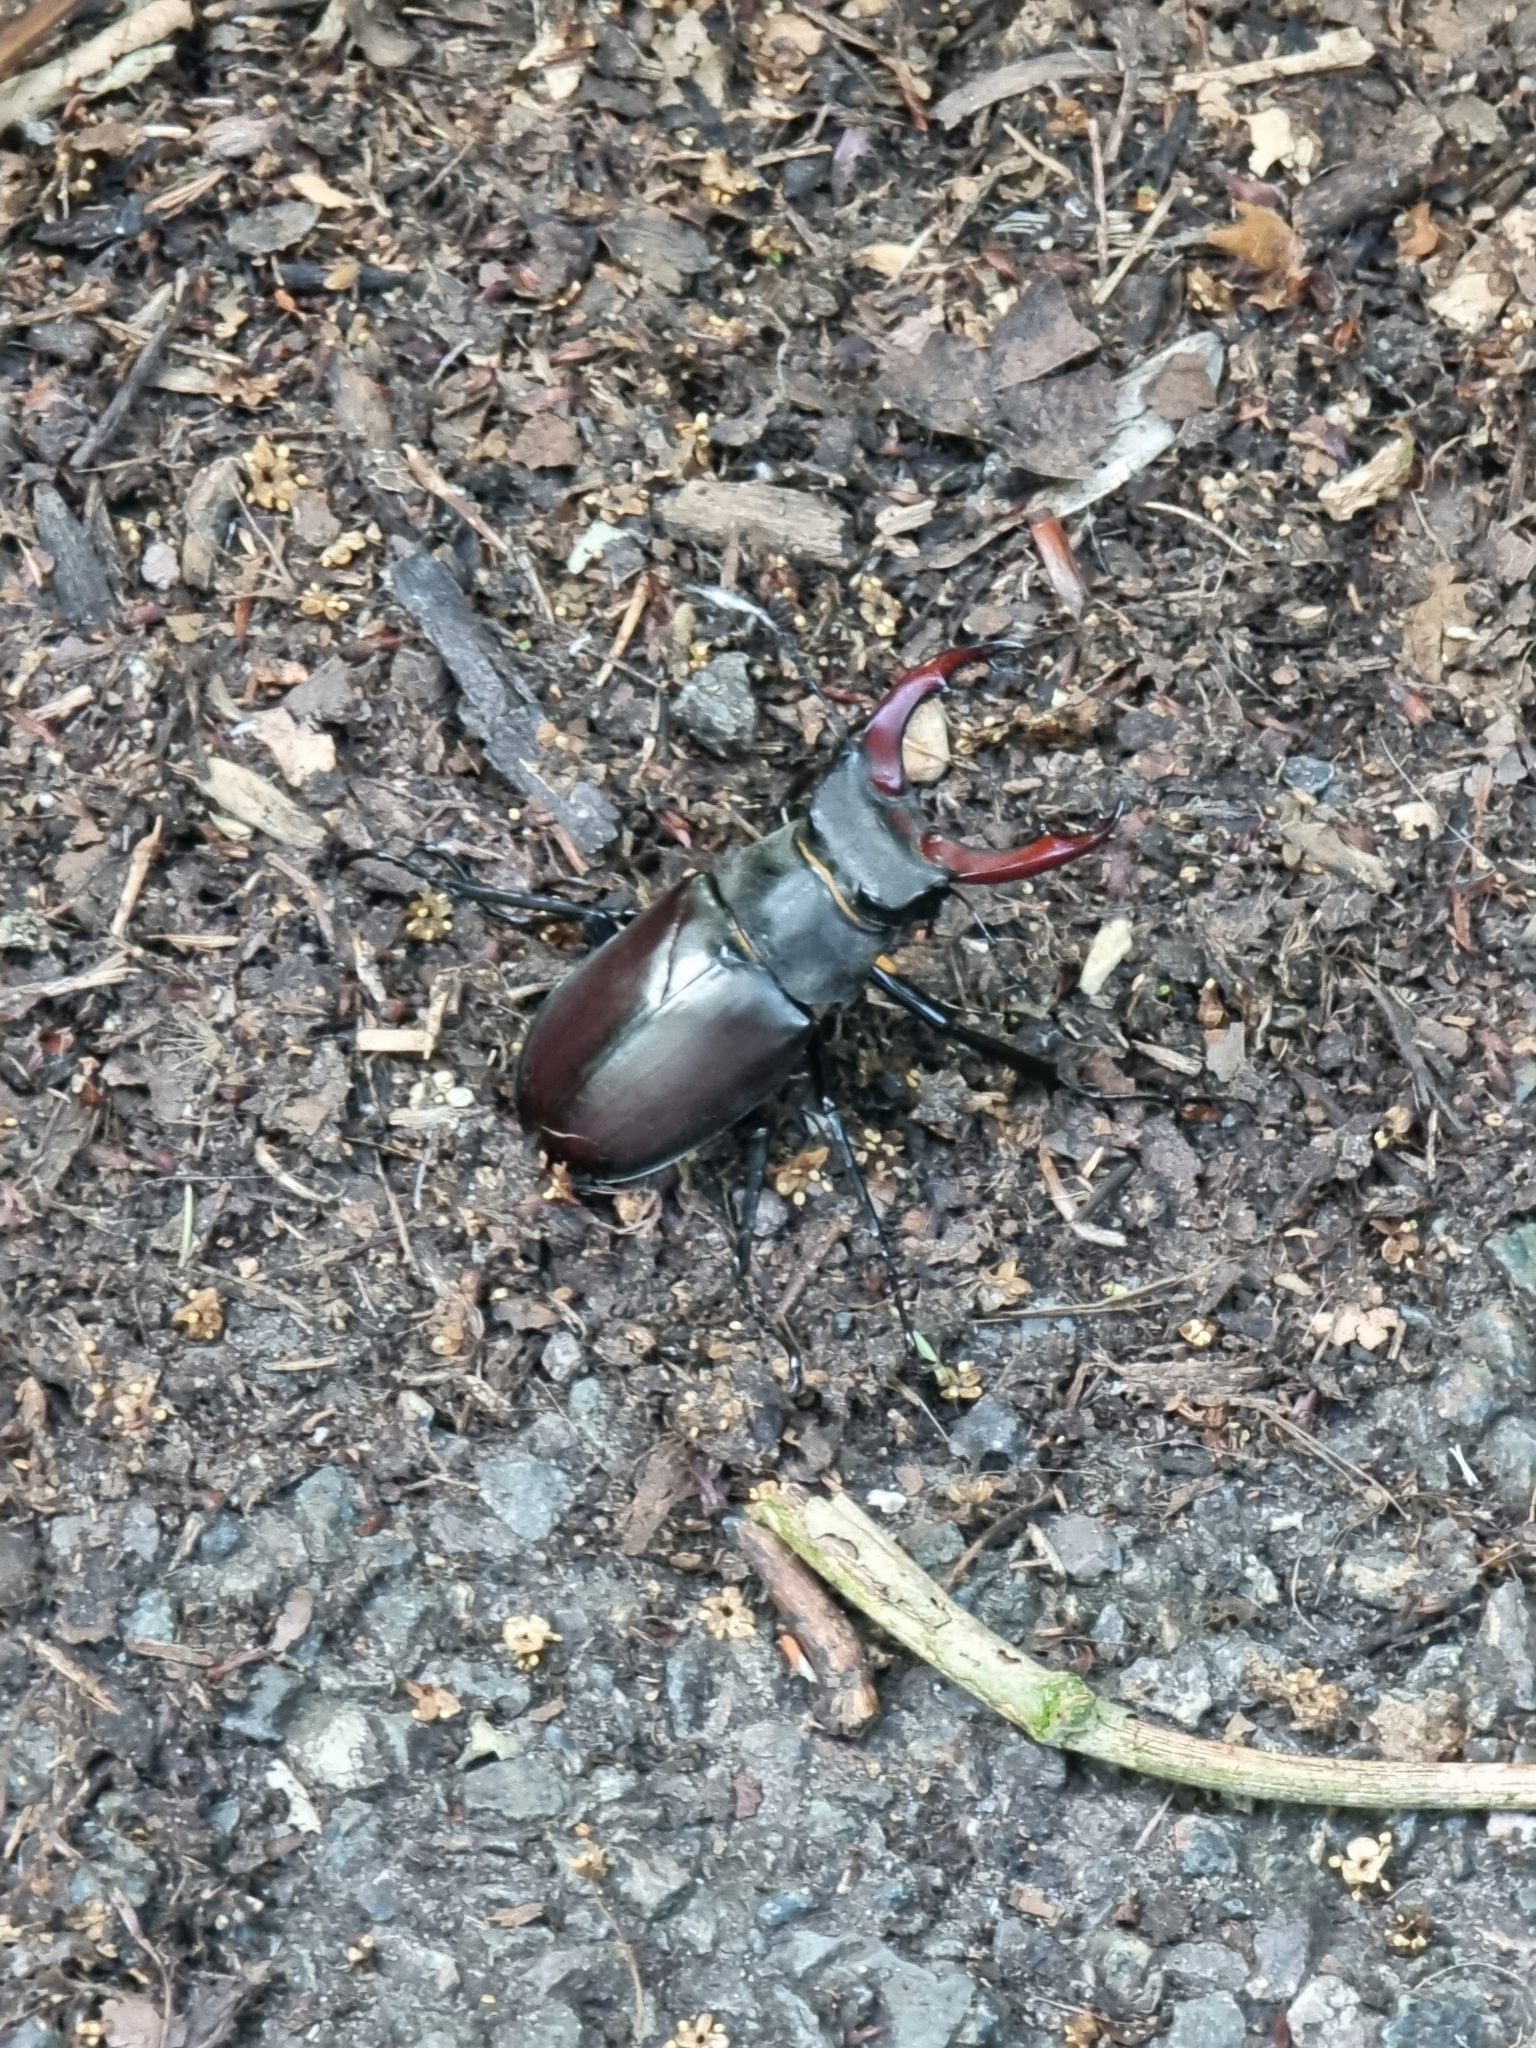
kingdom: Animalia
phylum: Arthropoda
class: Insecta
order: Coleoptera
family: Lucanidae
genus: Lucanus
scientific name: Lucanus cervus
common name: Stag beetle
